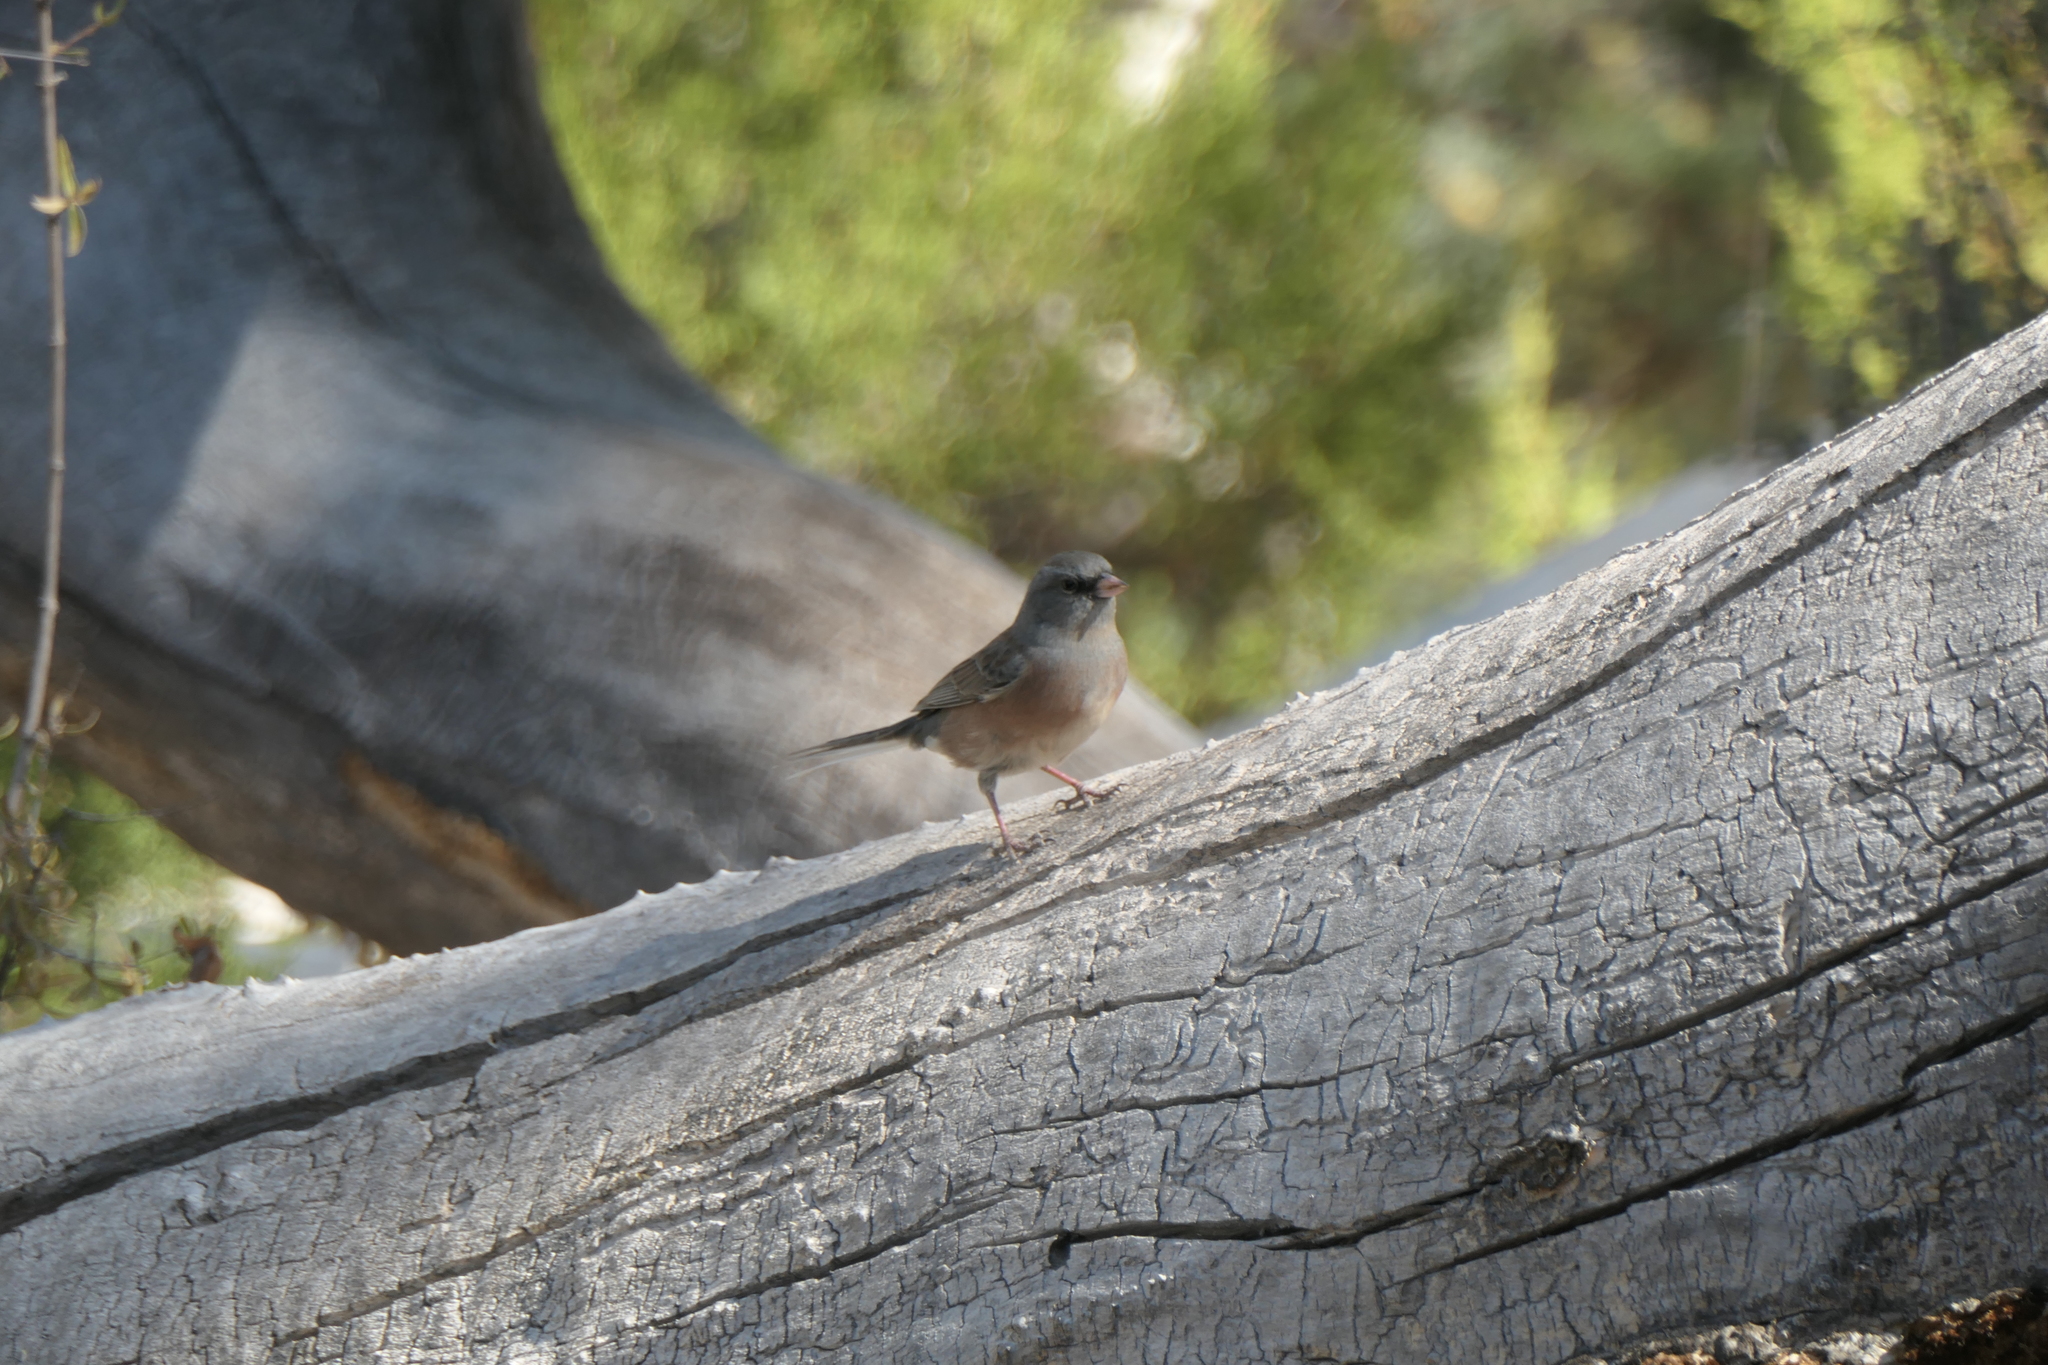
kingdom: Animalia
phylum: Chordata
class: Aves
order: Passeriformes
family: Passerellidae
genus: Junco
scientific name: Junco hyemalis
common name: Dark-eyed junco
